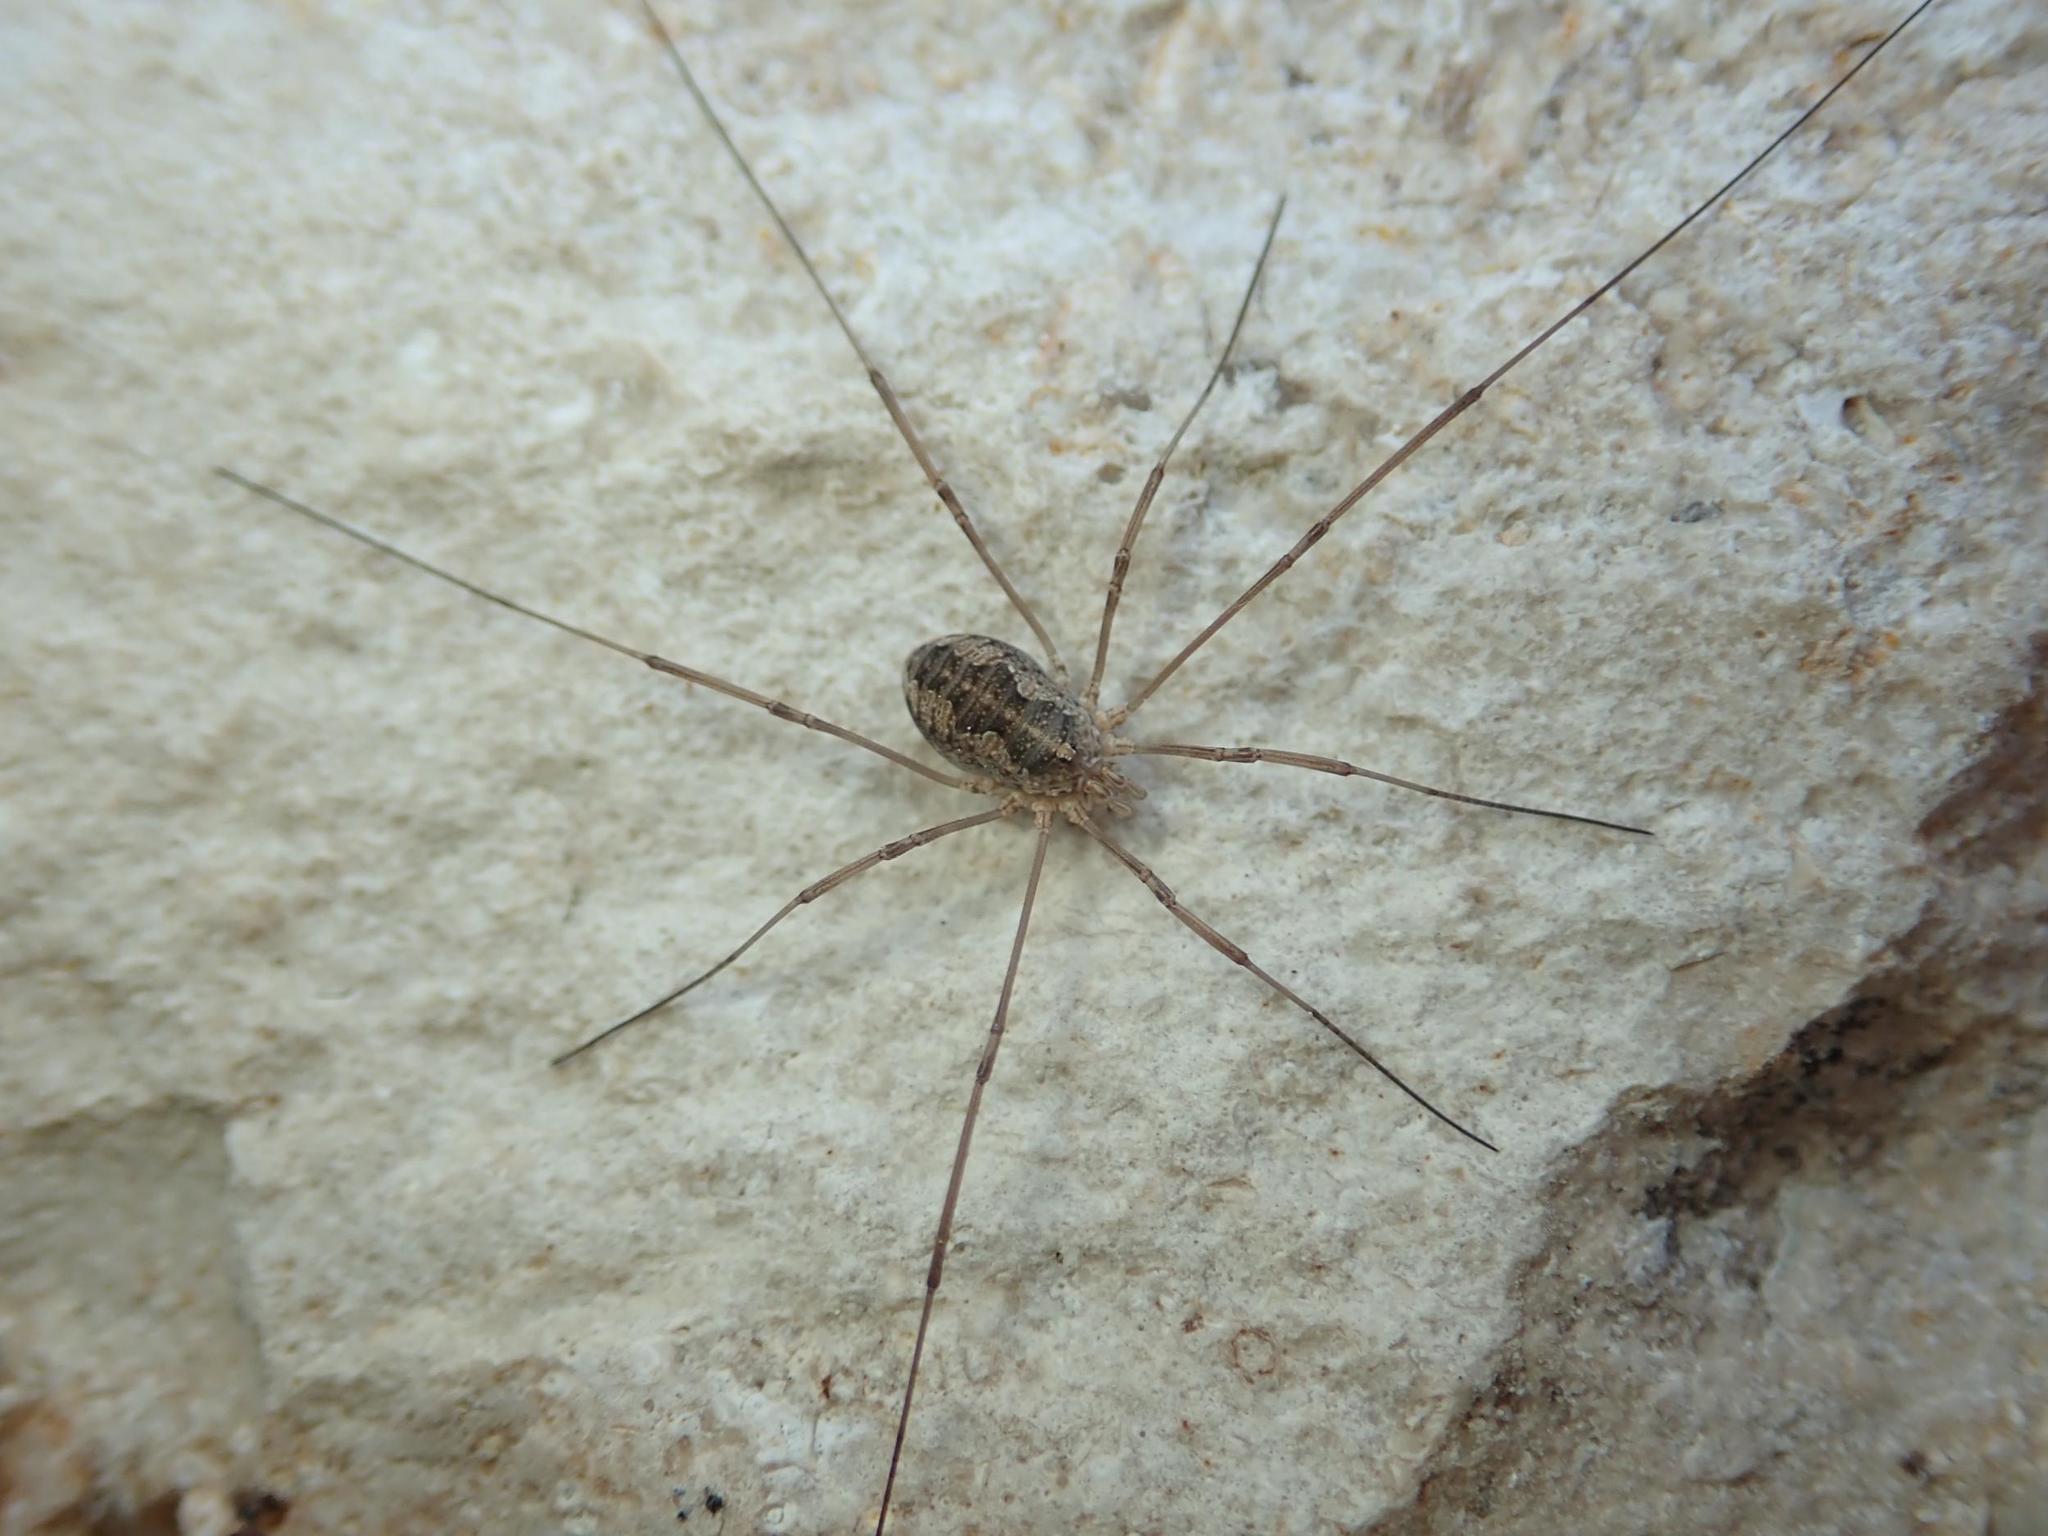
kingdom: Animalia
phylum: Arthropoda
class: Arachnida
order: Opiliones
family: Phalangiidae
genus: Phalangium
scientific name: Phalangium opilio
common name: Daddy longleg
